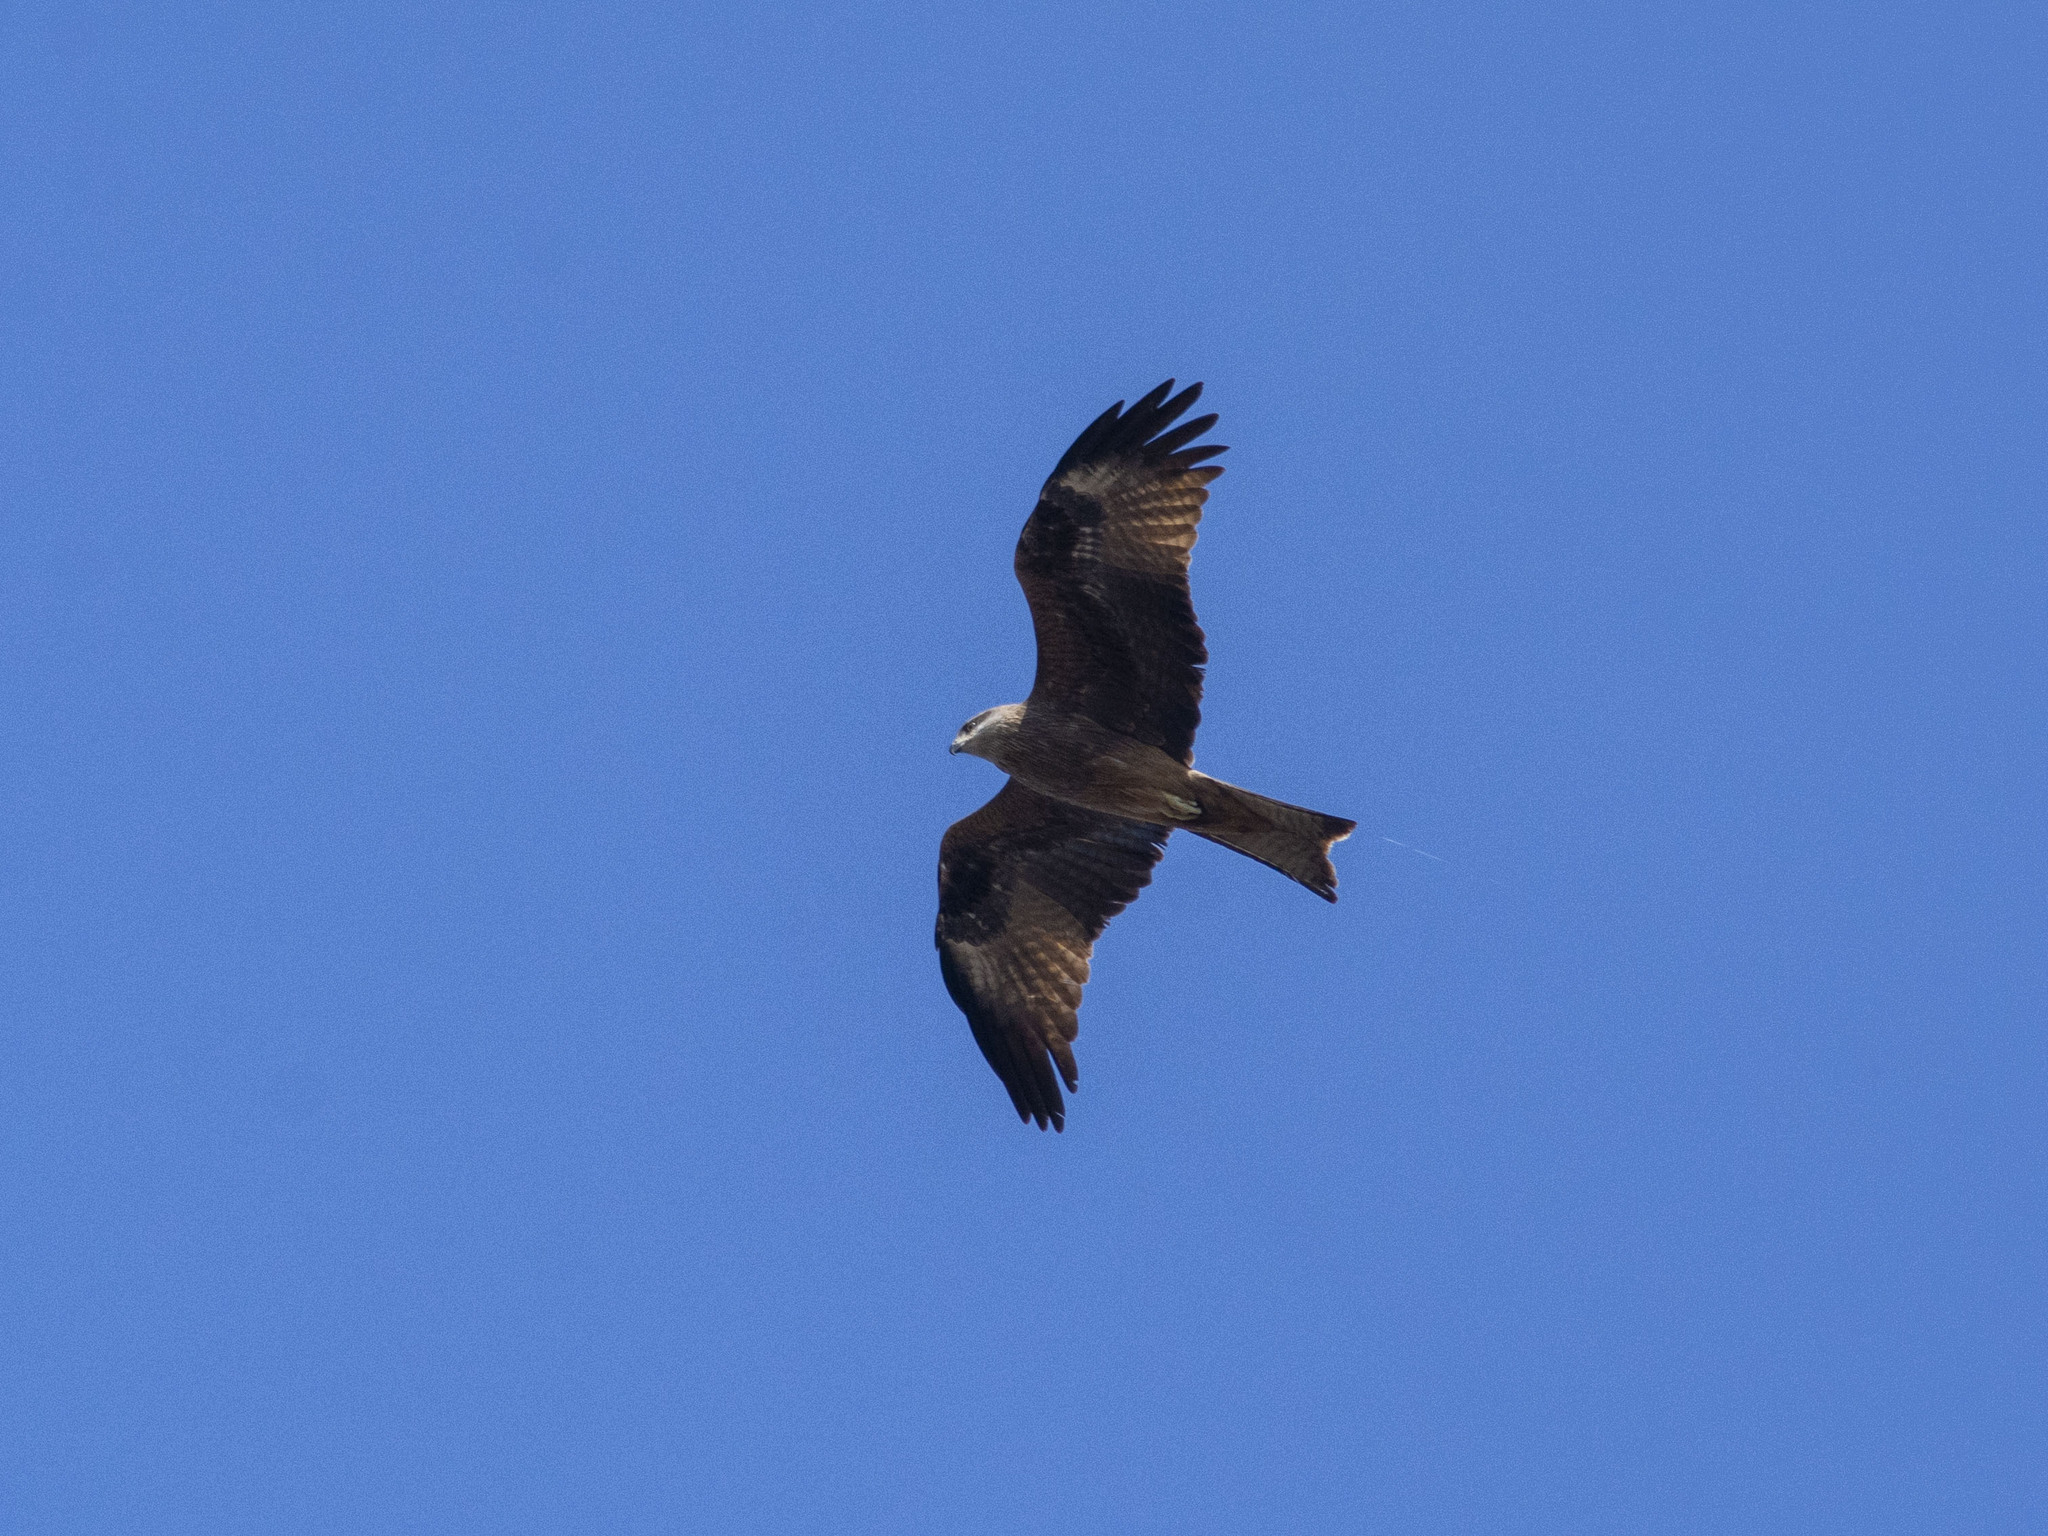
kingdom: Animalia
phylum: Chordata
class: Aves
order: Accipitriformes
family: Accipitridae
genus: Milvus
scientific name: Milvus migrans
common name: Black kite
